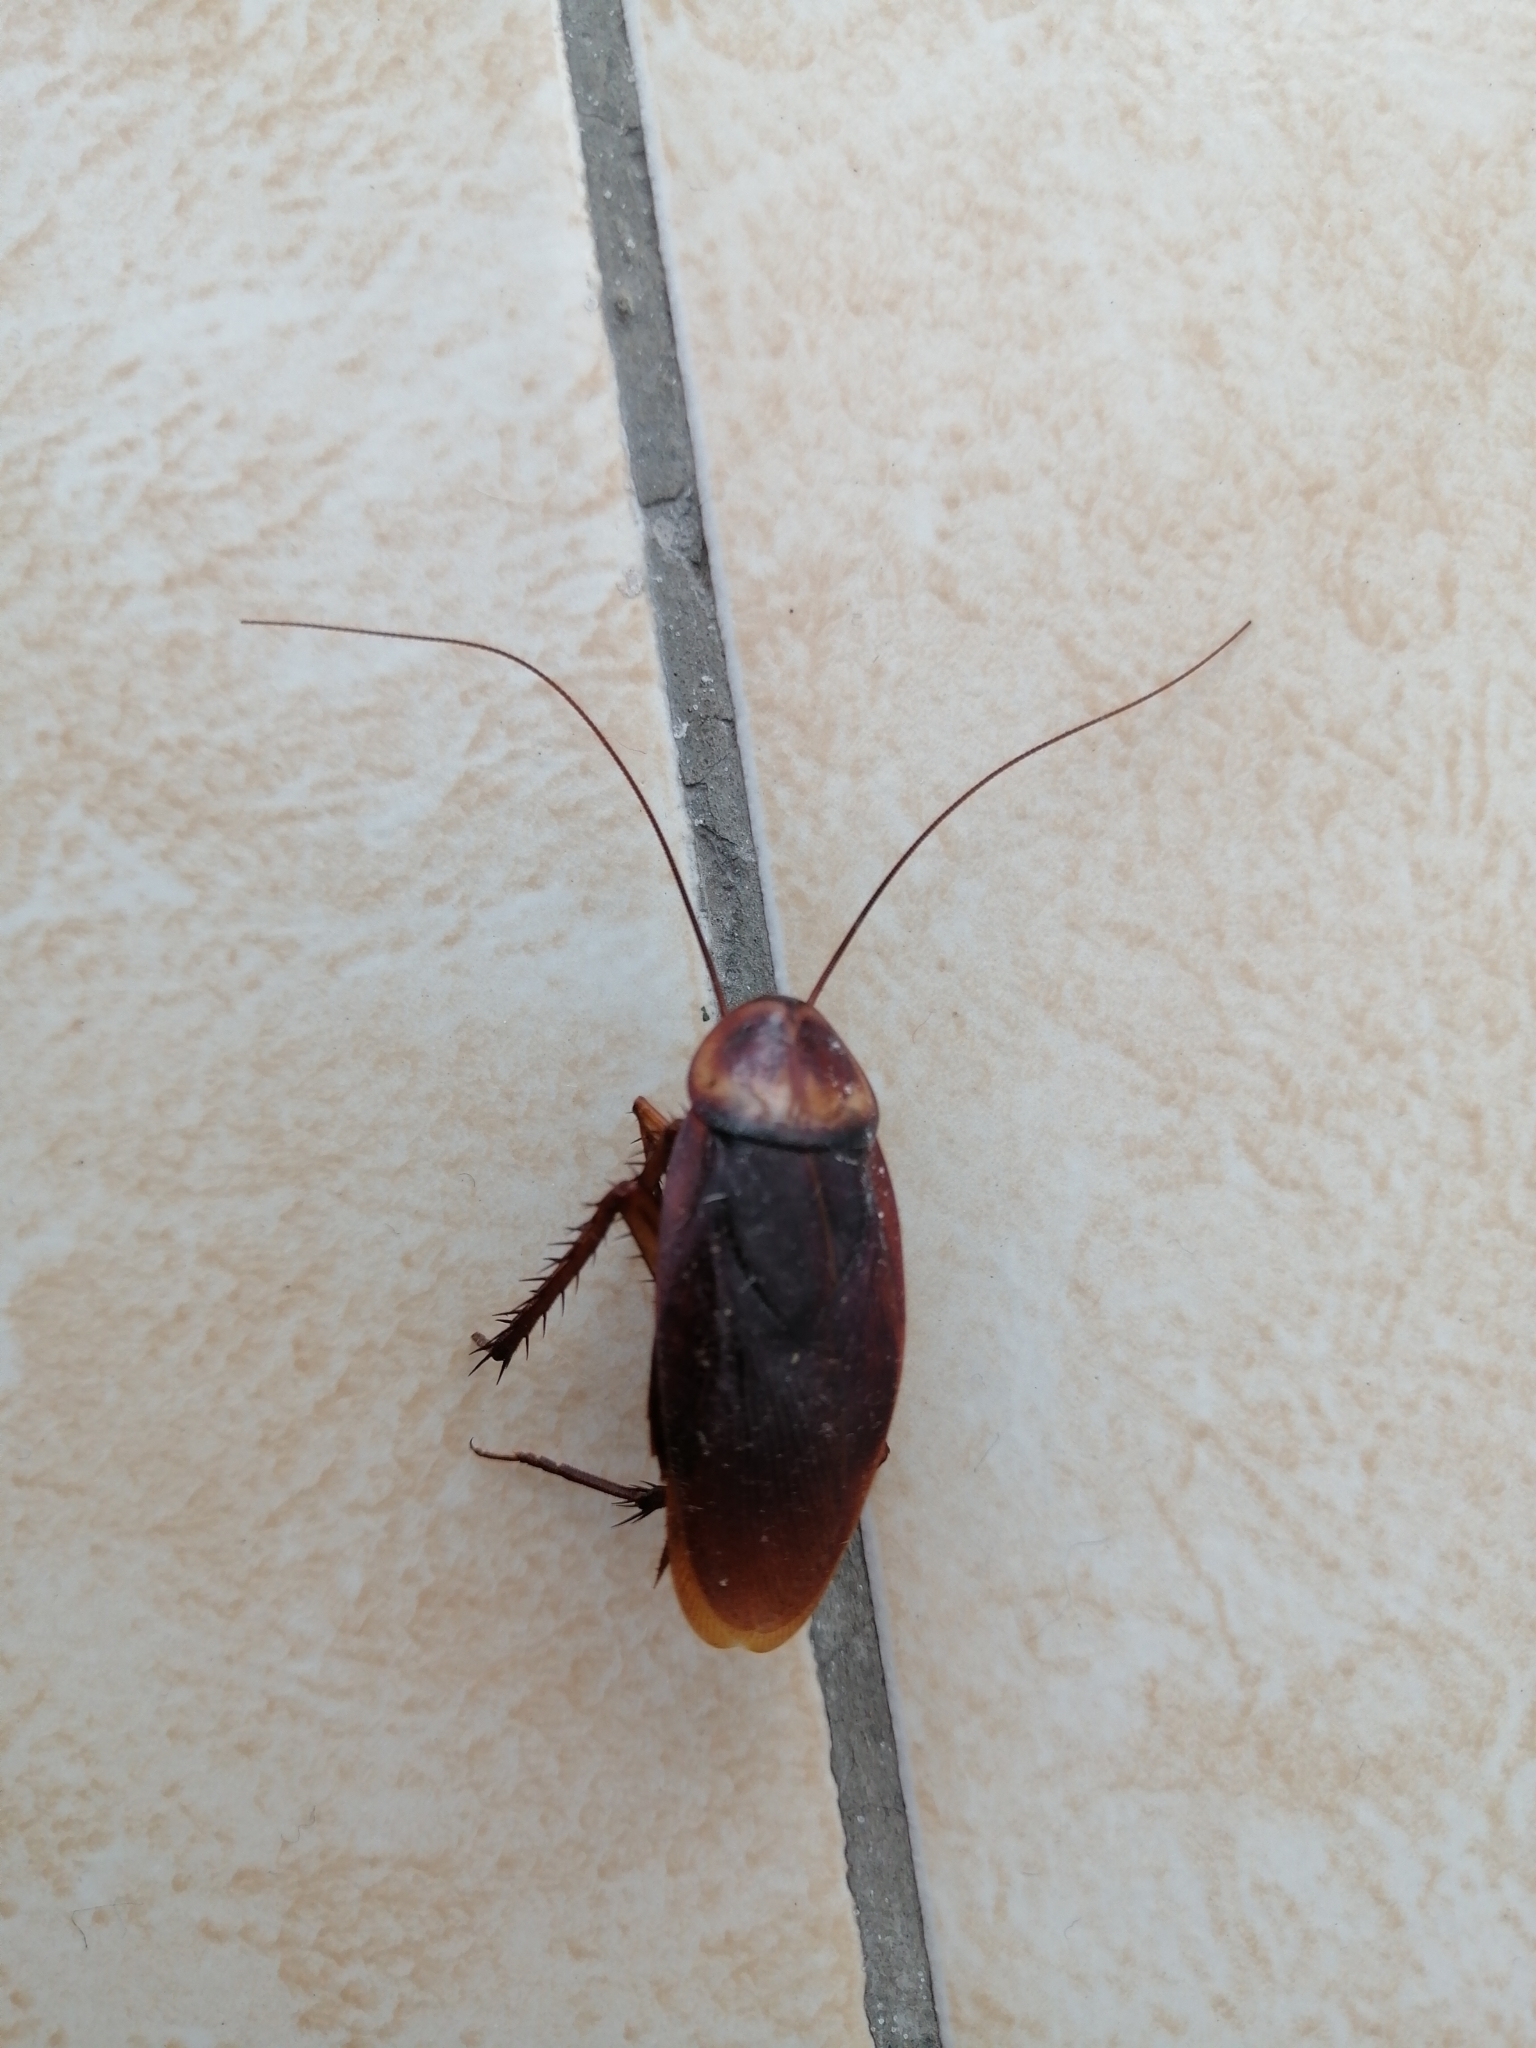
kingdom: Animalia
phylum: Arthropoda
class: Insecta
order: Blattodea
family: Blattidae
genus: Periplaneta
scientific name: Periplaneta americana
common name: American cockroach
